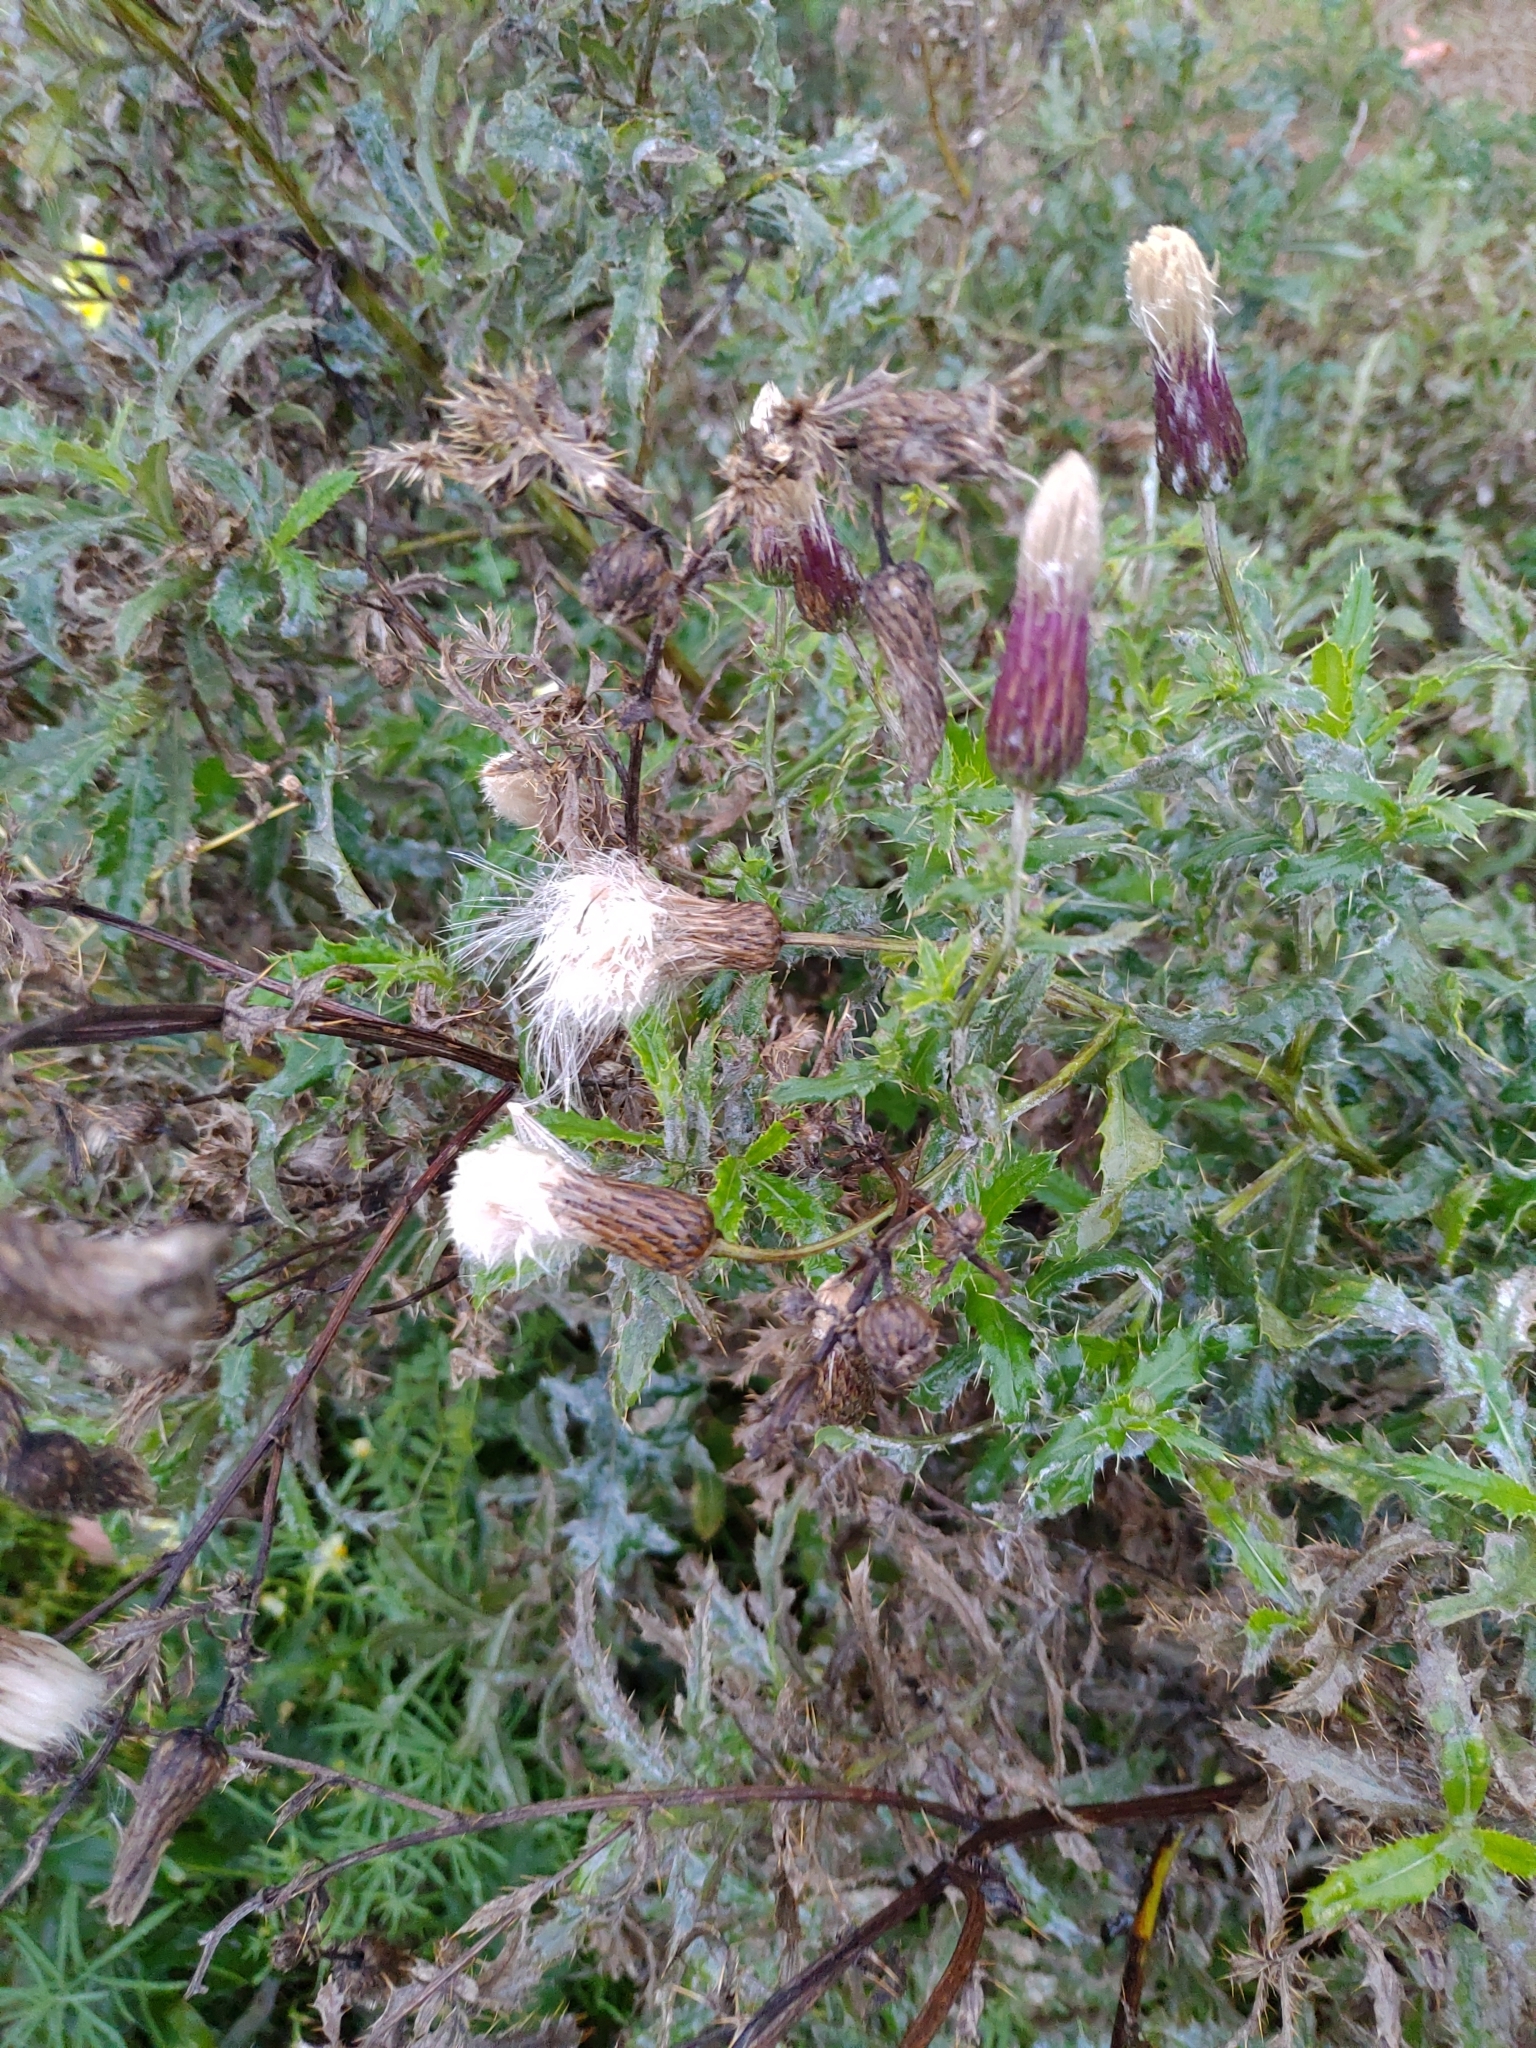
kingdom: Plantae
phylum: Tracheophyta
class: Magnoliopsida
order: Asterales
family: Asteraceae
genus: Cirsium
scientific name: Cirsium arvense
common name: Creeping thistle
